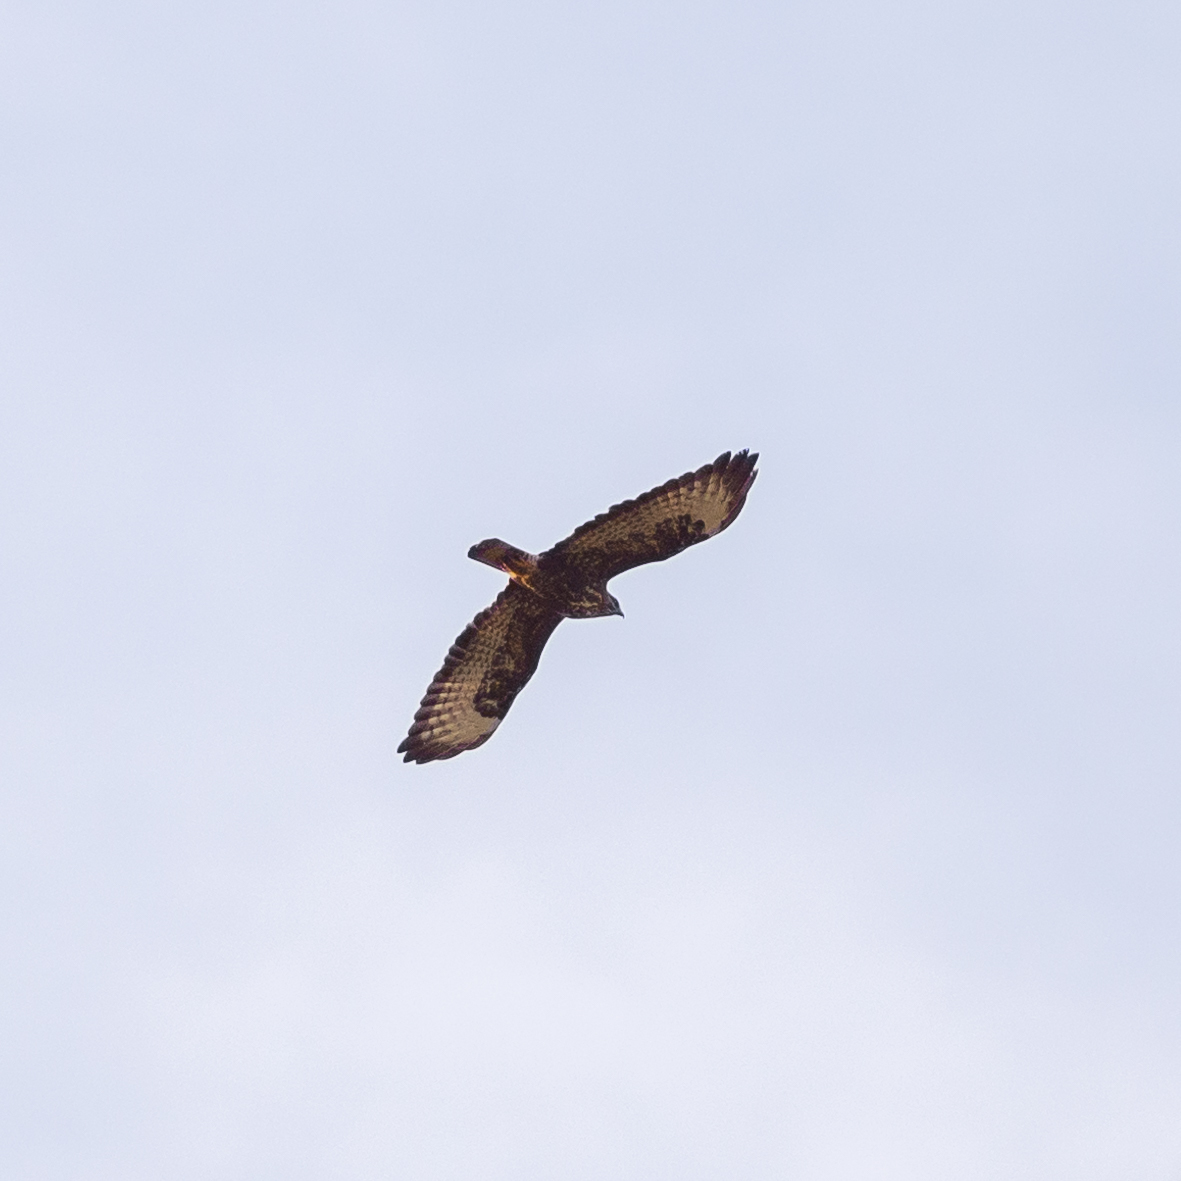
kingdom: Animalia
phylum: Chordata
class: Aves
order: Accipitriformes
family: Accipitridae
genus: Buteo
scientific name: Buteo buteo
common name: Common buzzard
